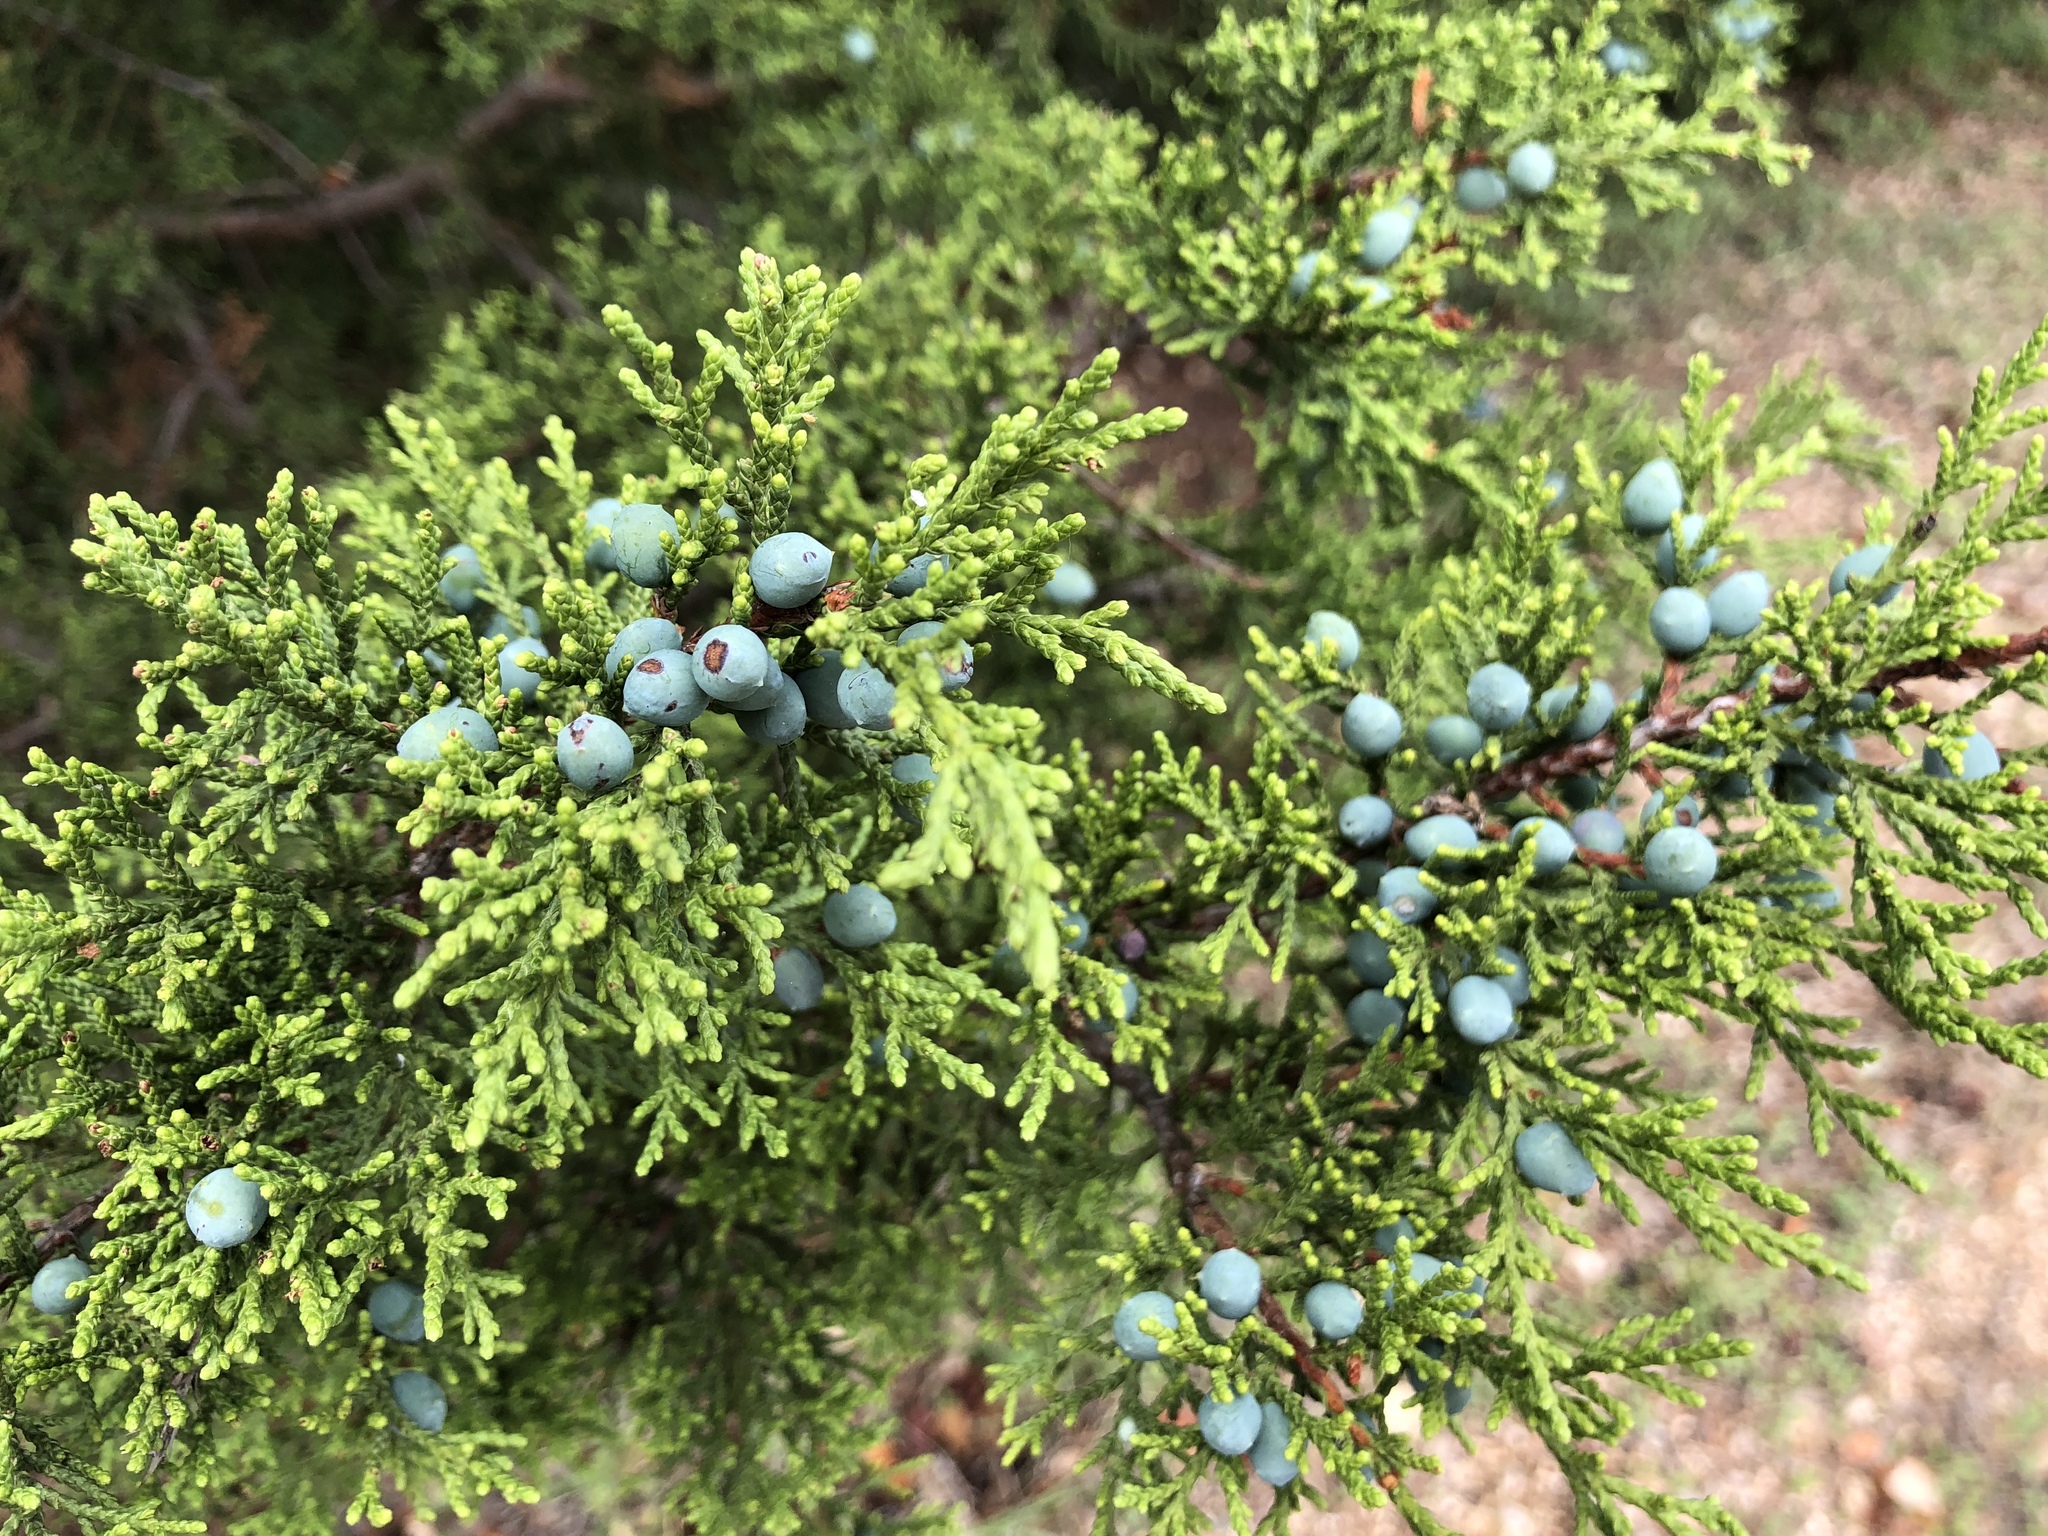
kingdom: Plantae
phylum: Tracheophyta
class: Pinopsida
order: Pinales
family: Cupressaceae
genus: Juniperus
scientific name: Juniperus ashei
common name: Mexican juniper
